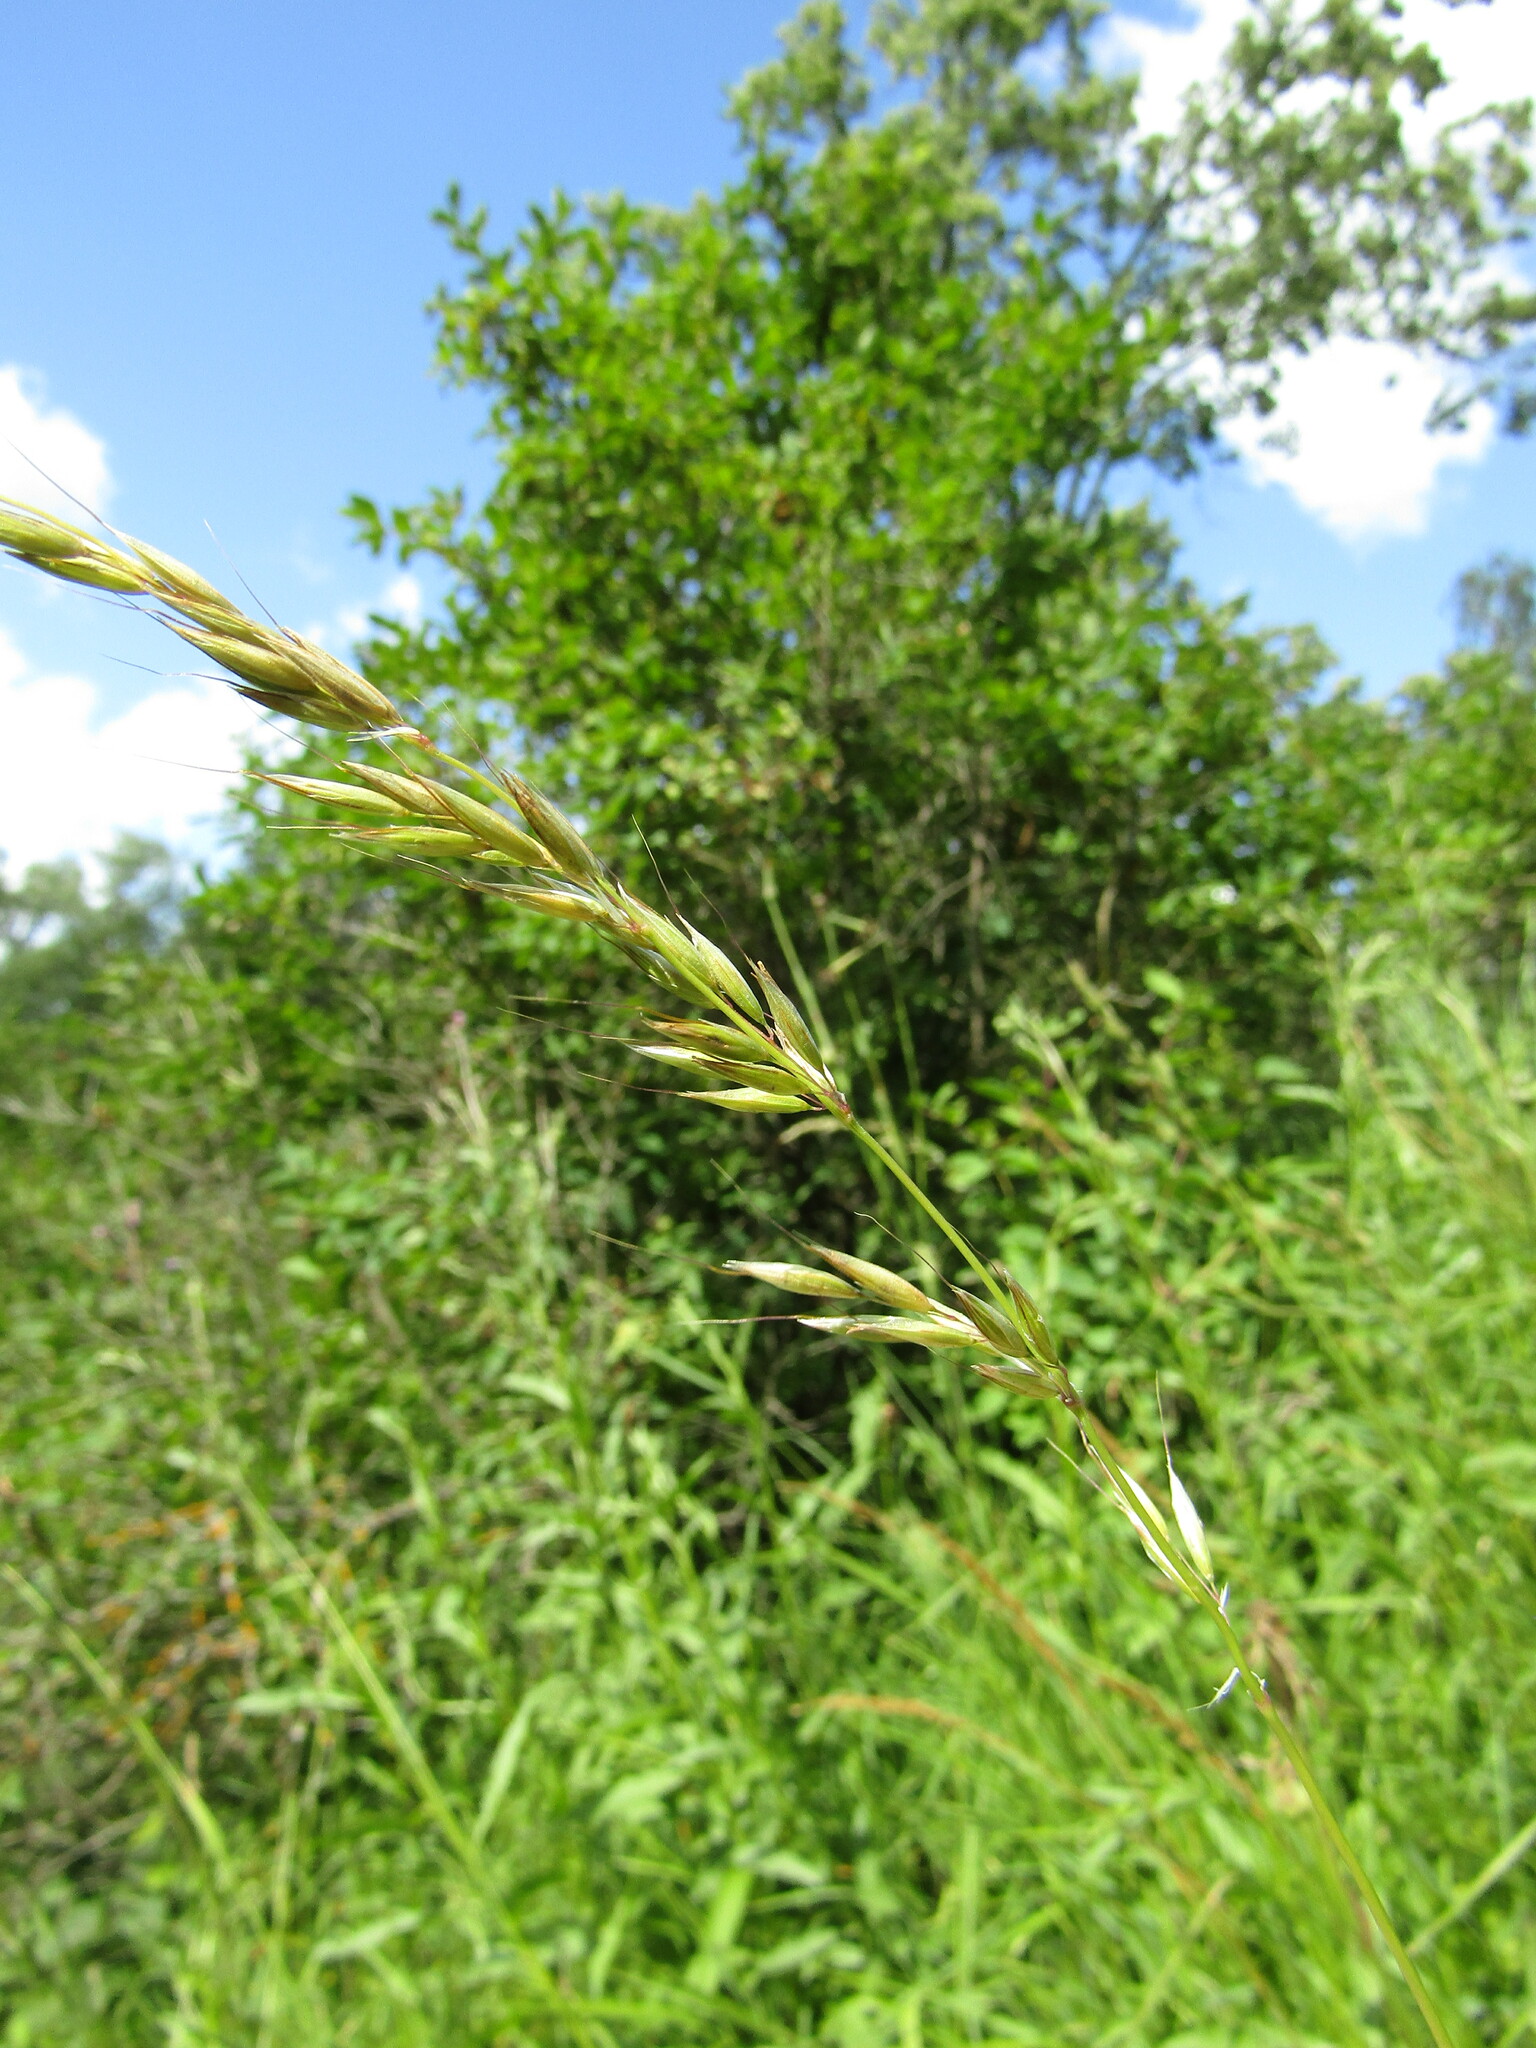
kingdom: Plantae
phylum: Tracheophyta
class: Liliopsida
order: Poales
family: Poaceae
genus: Arrhenatherum
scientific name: Arrhenatherum elatius
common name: Tall oatgrass
